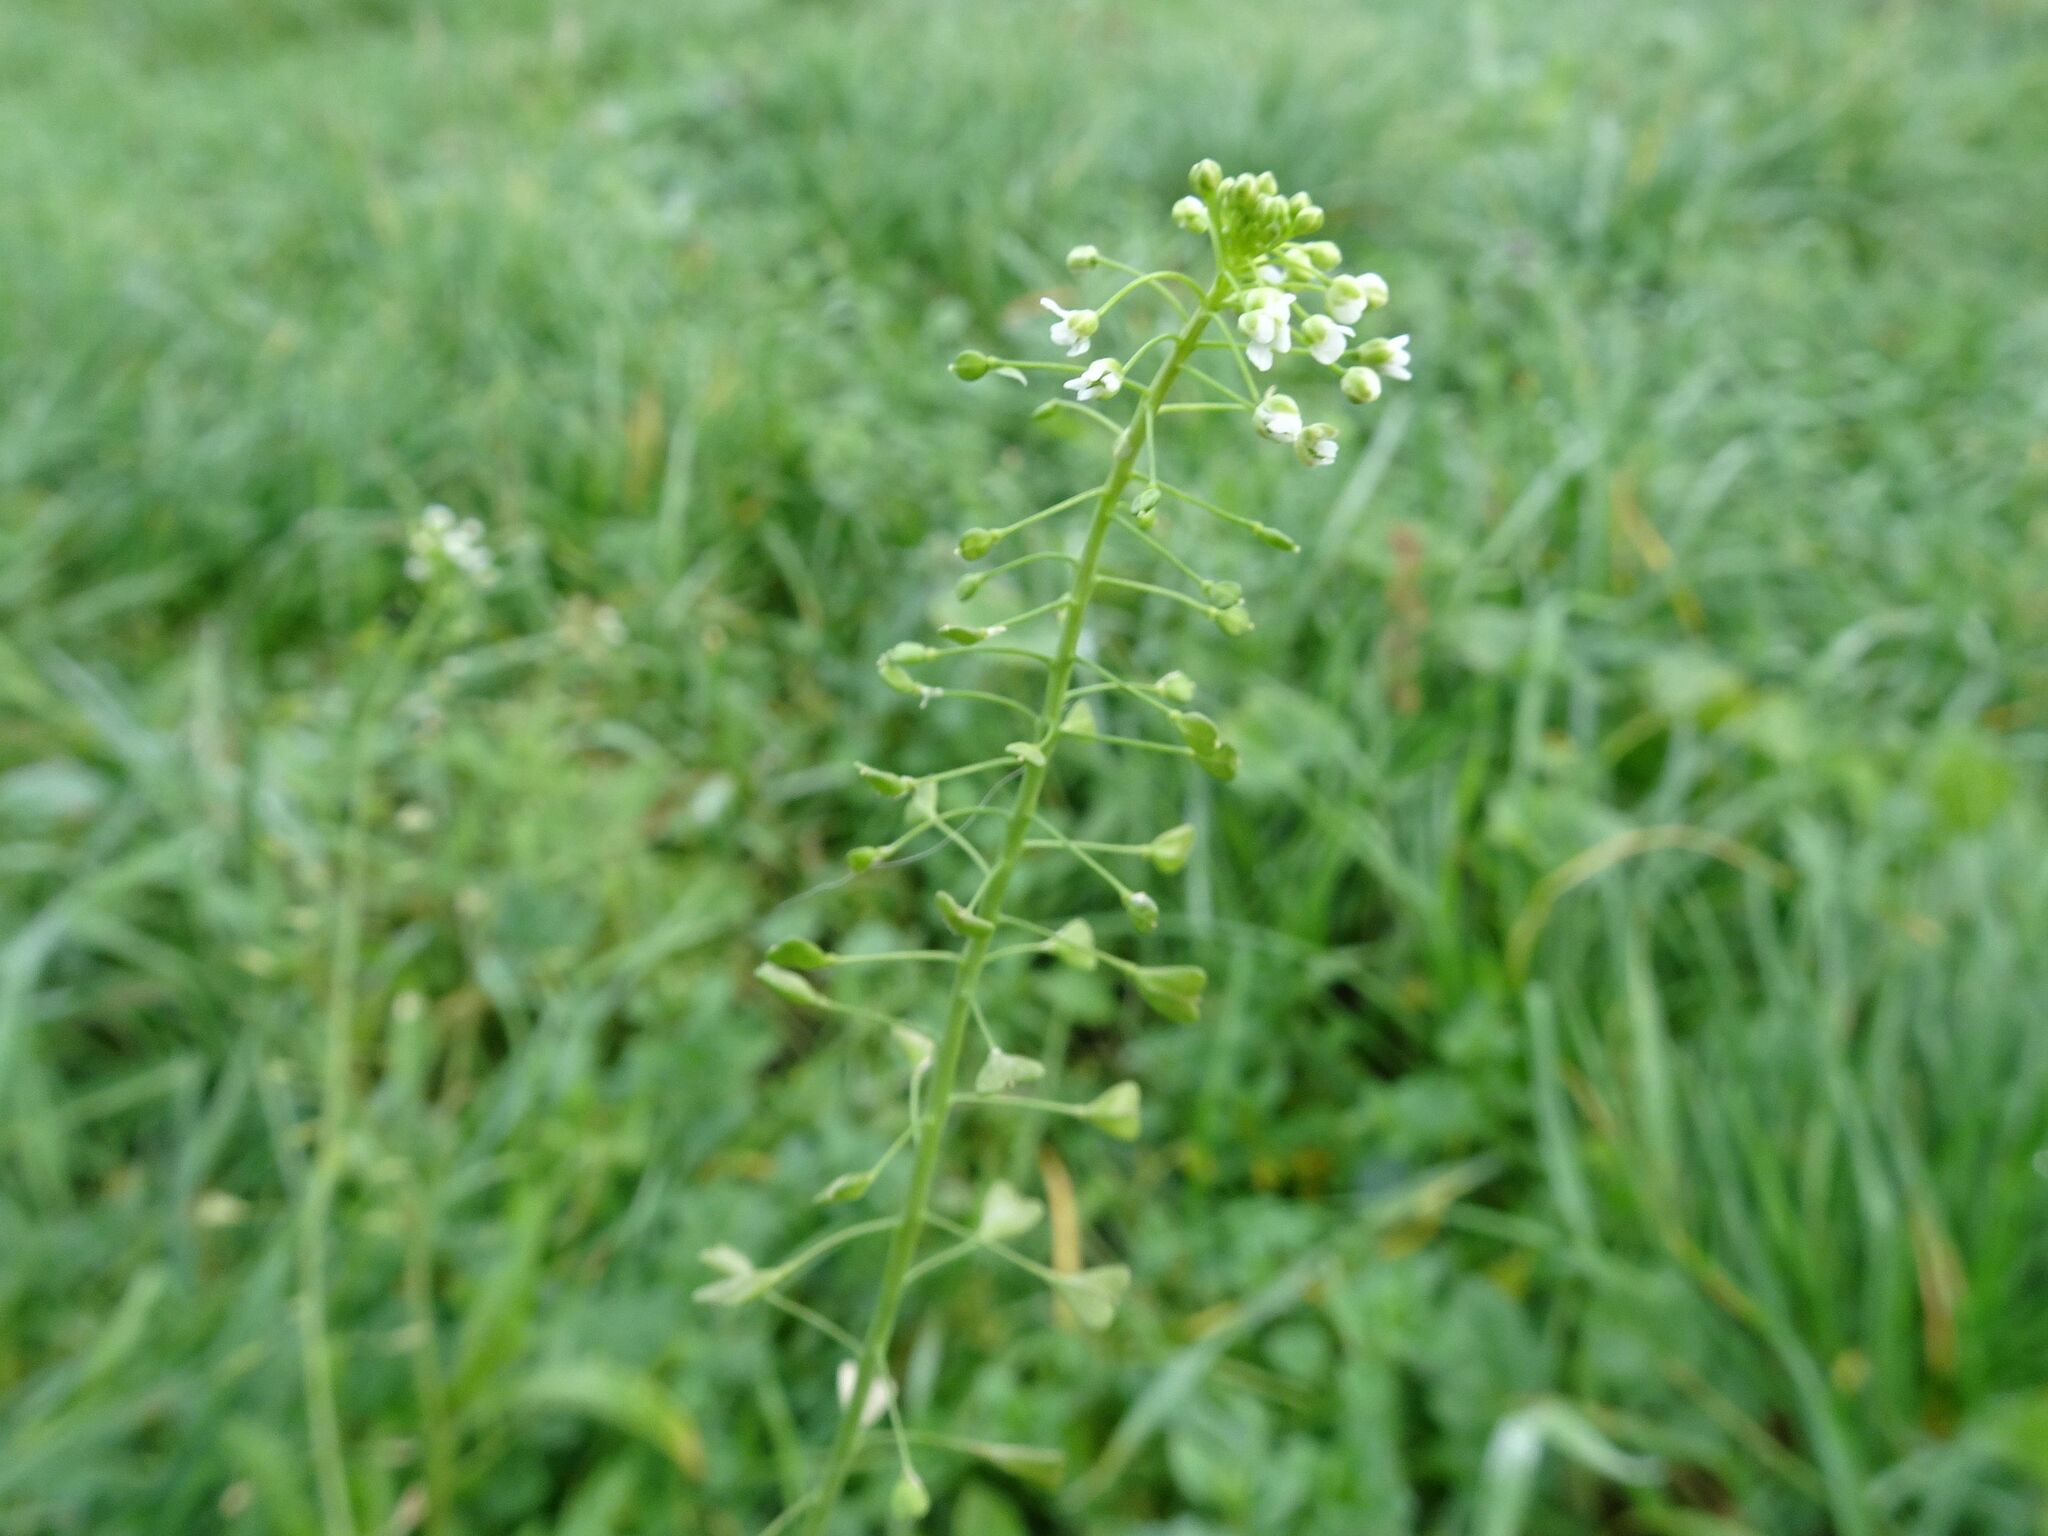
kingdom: Plantae
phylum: Tracheophyta
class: Magnoliopsida
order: Brassicales
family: Brassicaceae
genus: Capsella
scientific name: Capsella bursa-pastoris
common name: Shepherd's purse
